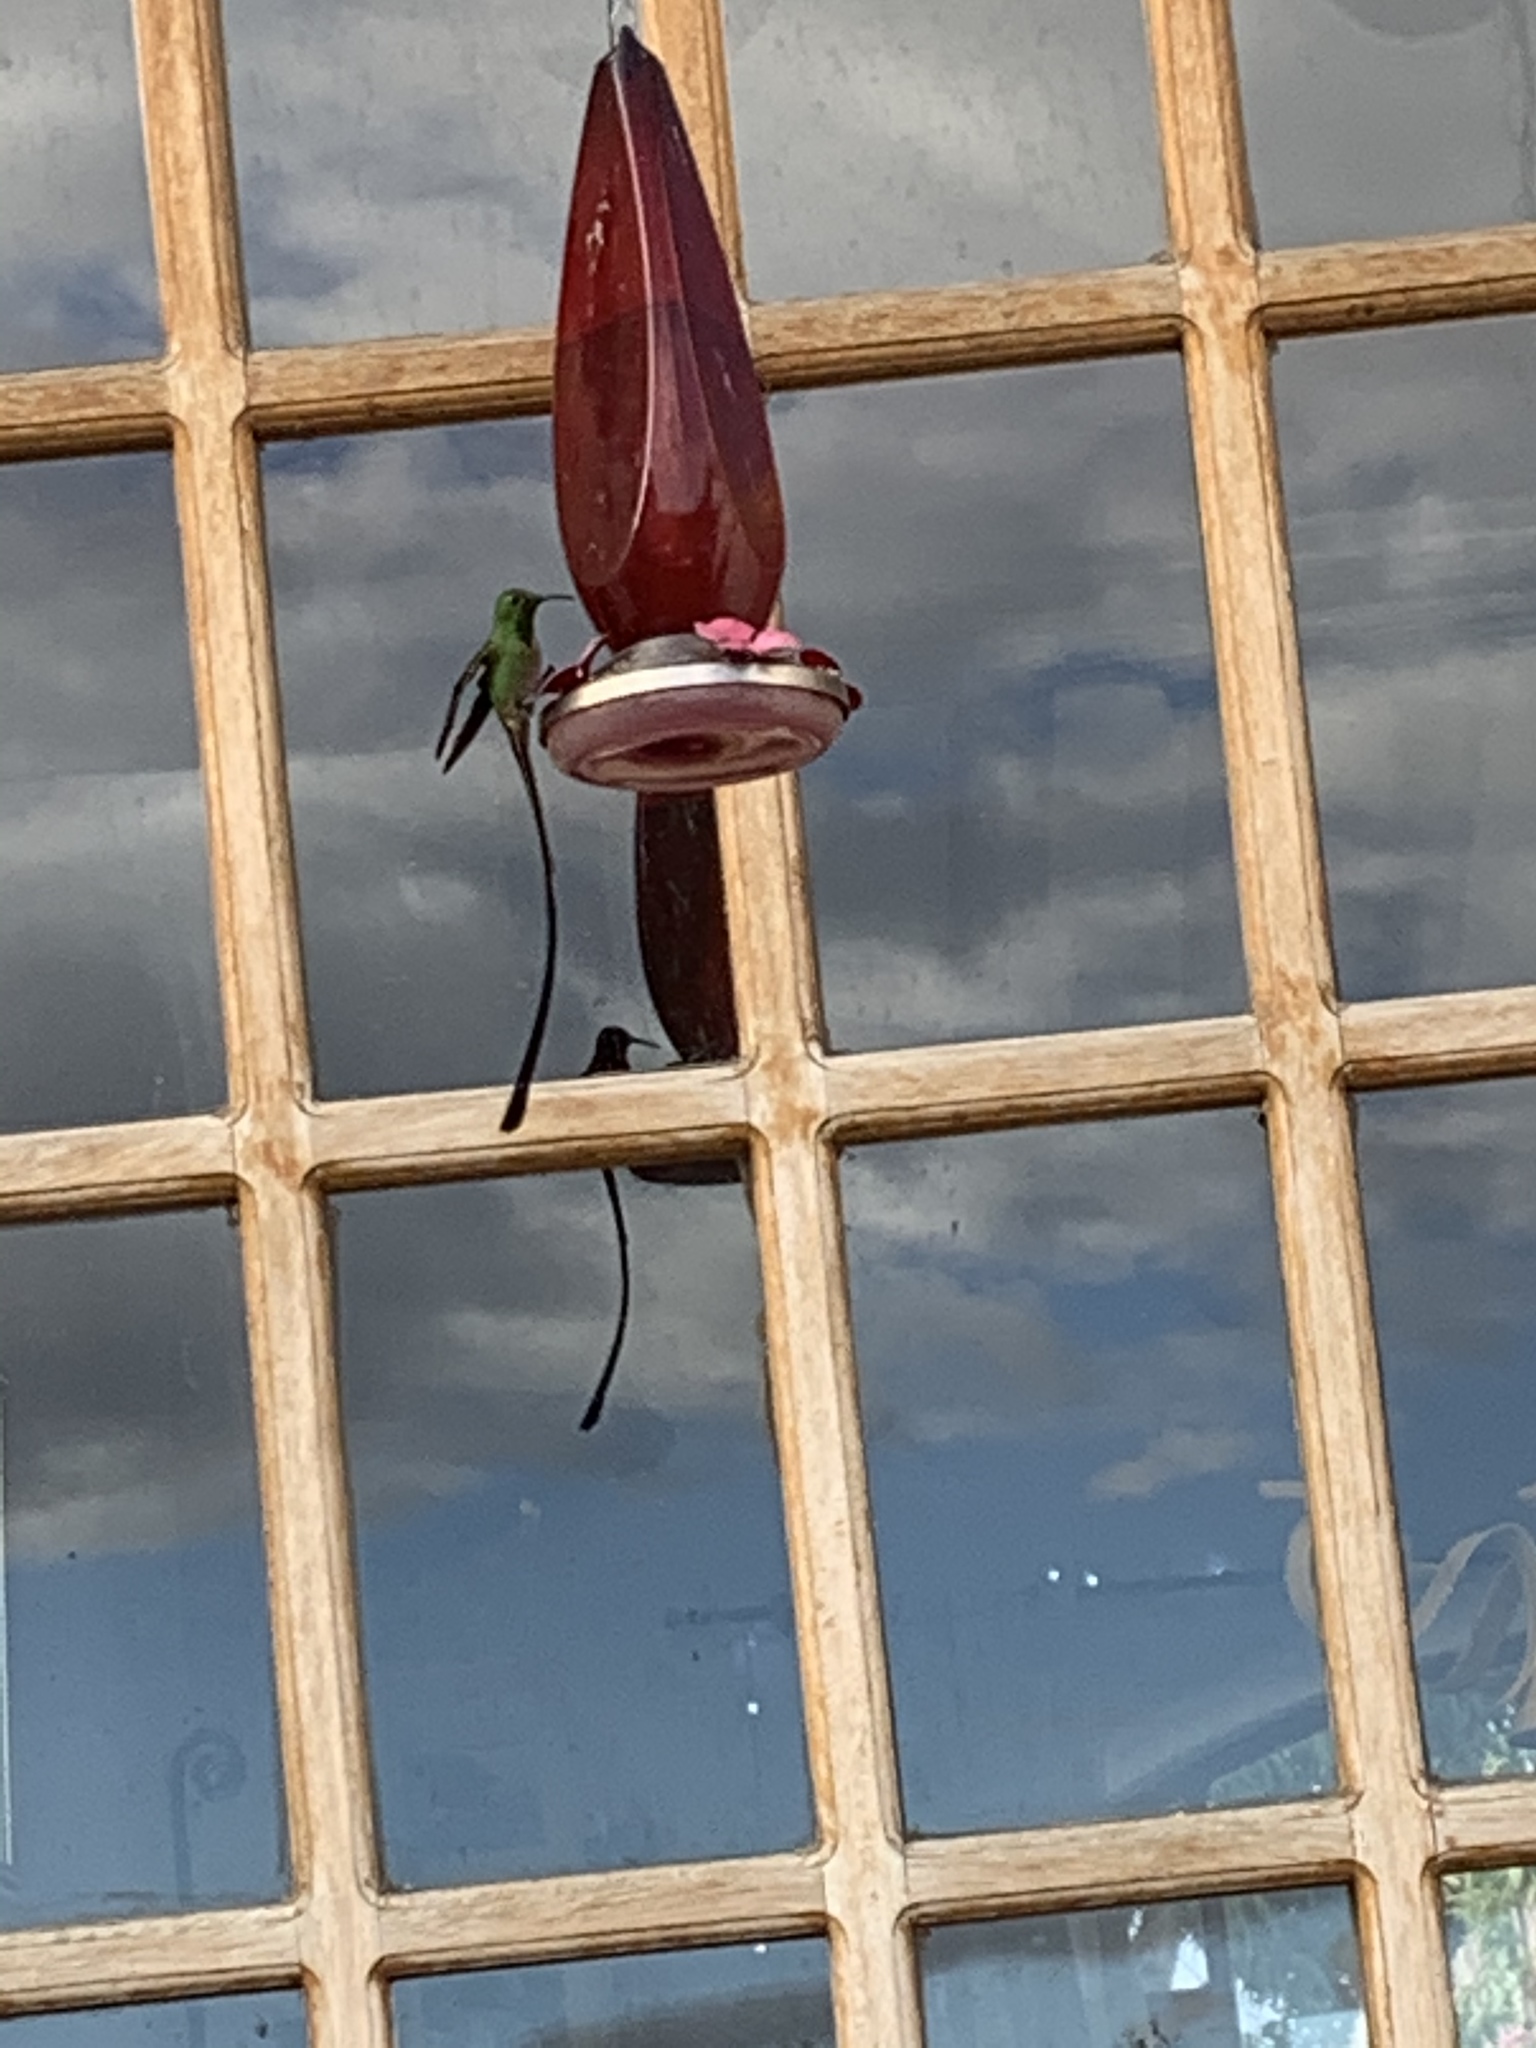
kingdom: Animalia
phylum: Chordata
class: Aves
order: Apodiformes
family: Trochilidae
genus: Lesbia
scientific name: Lesbia victoriae
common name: Black-tailed trainbearer
